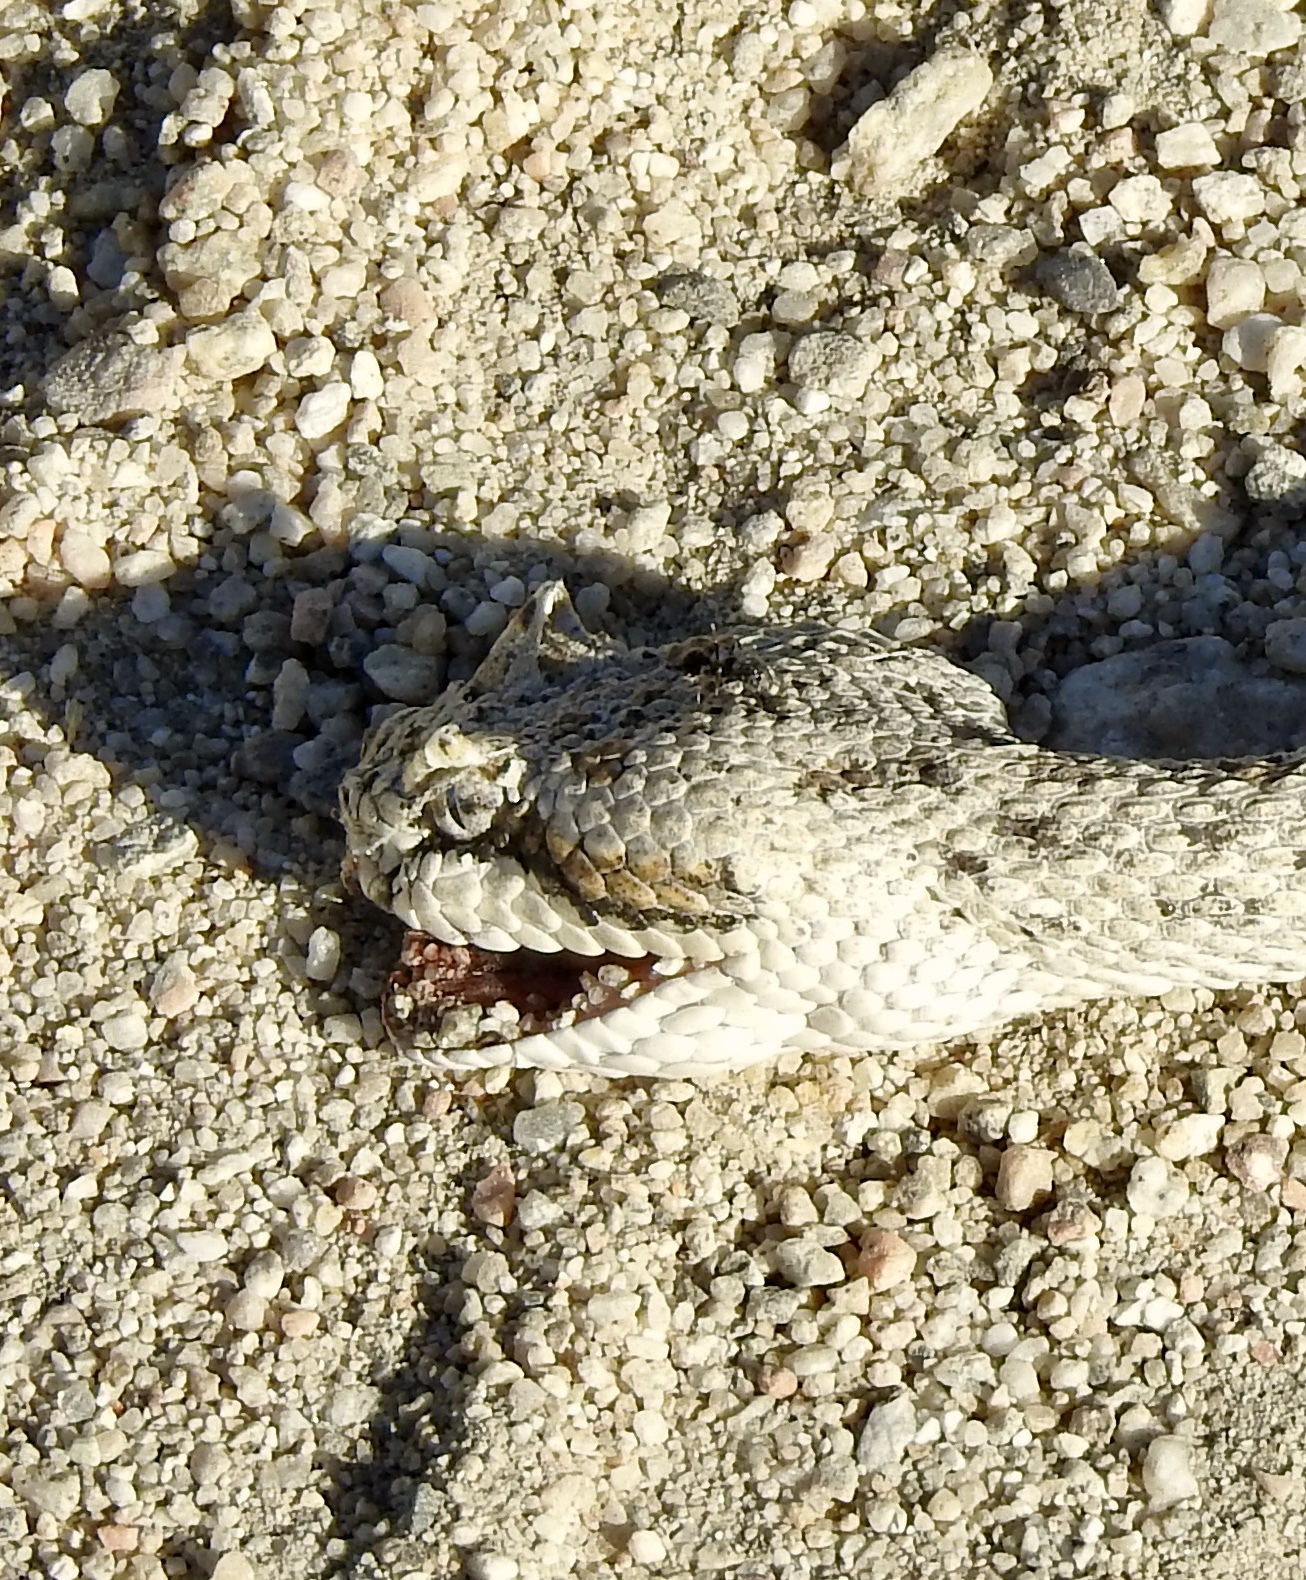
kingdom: Animalia
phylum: Chordata
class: Squamata
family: Viperidae
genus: Crotalus
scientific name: Crotalus cerastes
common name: Sidewinder
